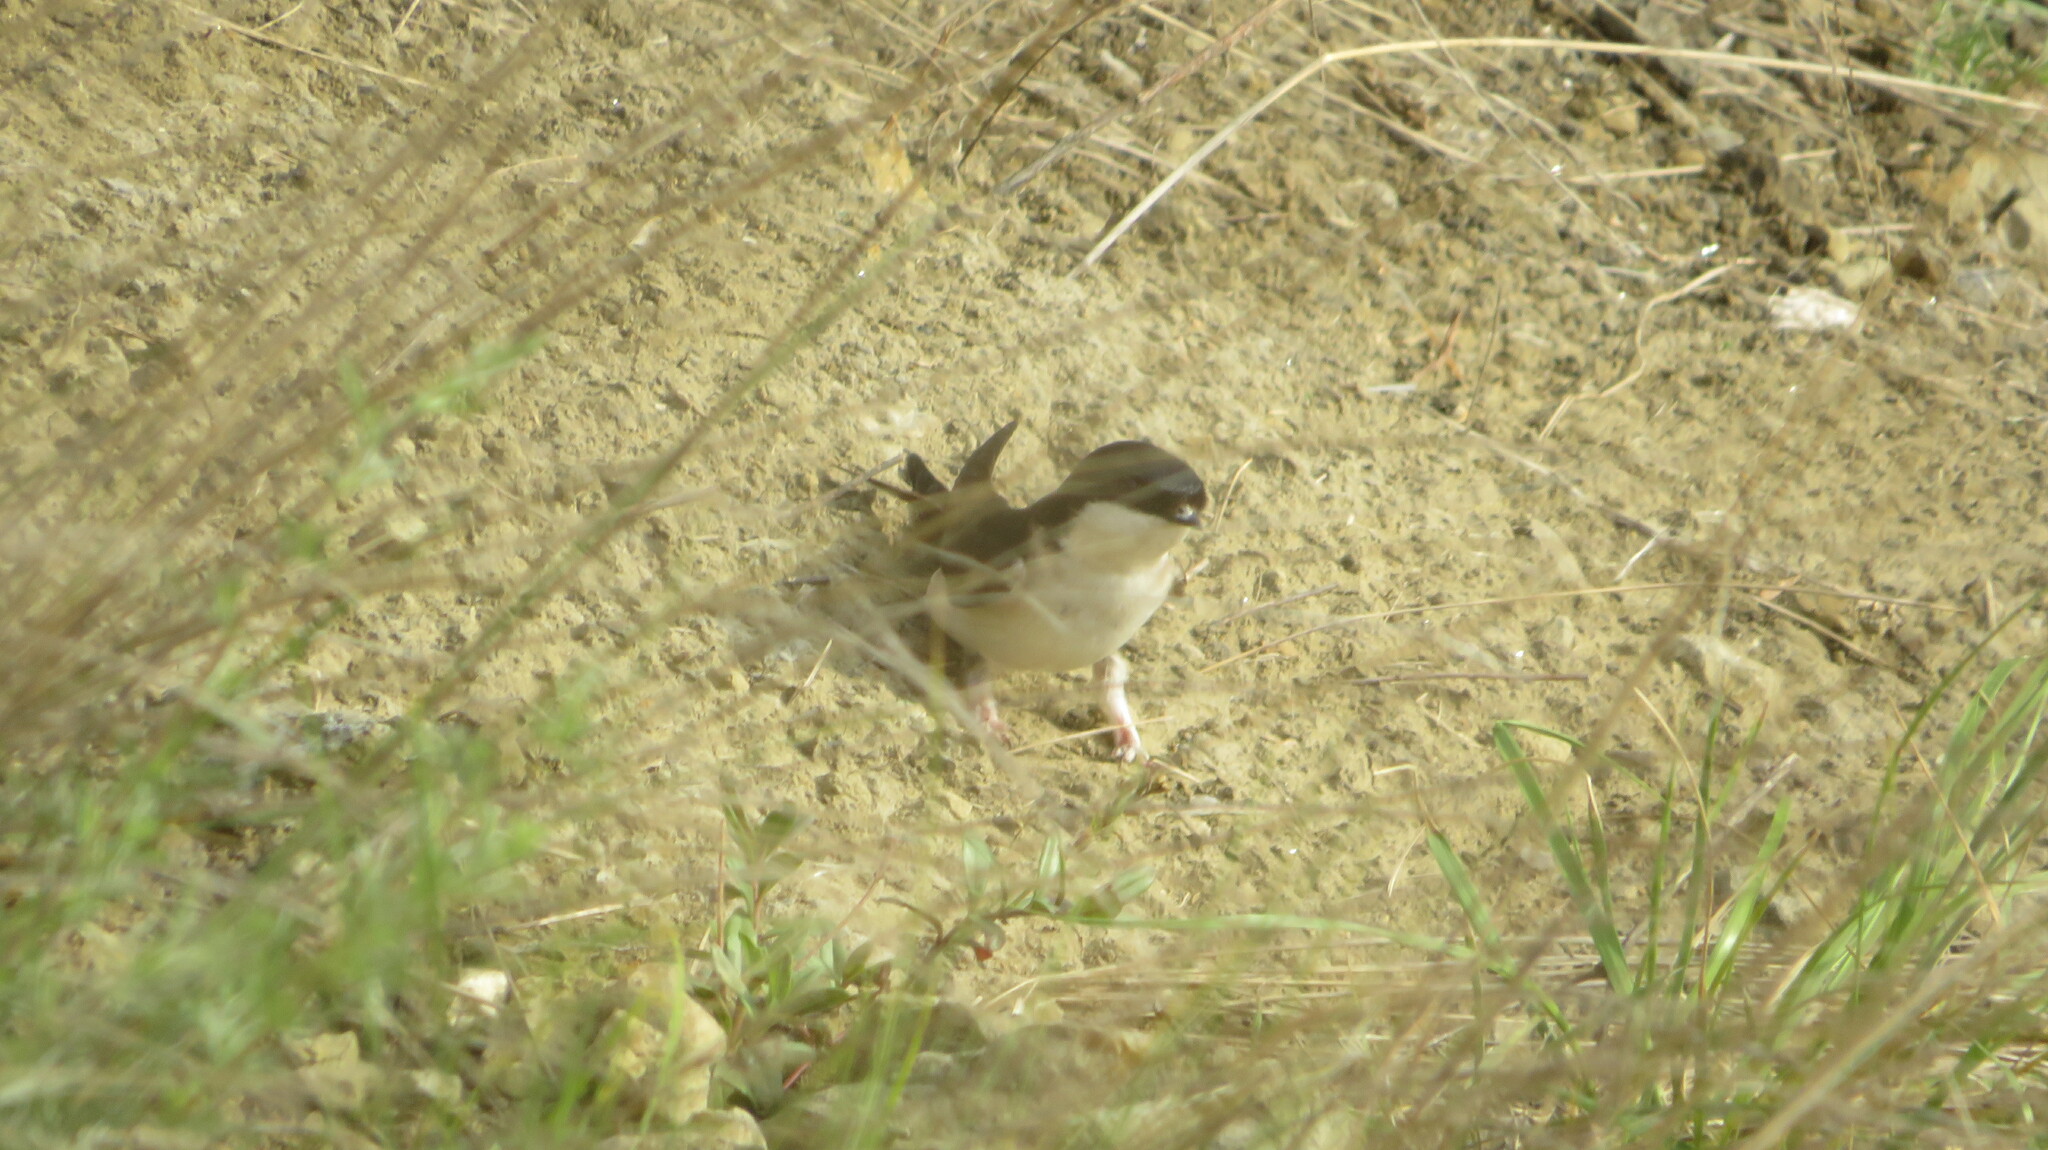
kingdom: Animalia
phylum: Chordata
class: Aves
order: Passeriformes
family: Hirundinidae
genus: Delichon
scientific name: Delichon urbicum
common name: Common house martin
